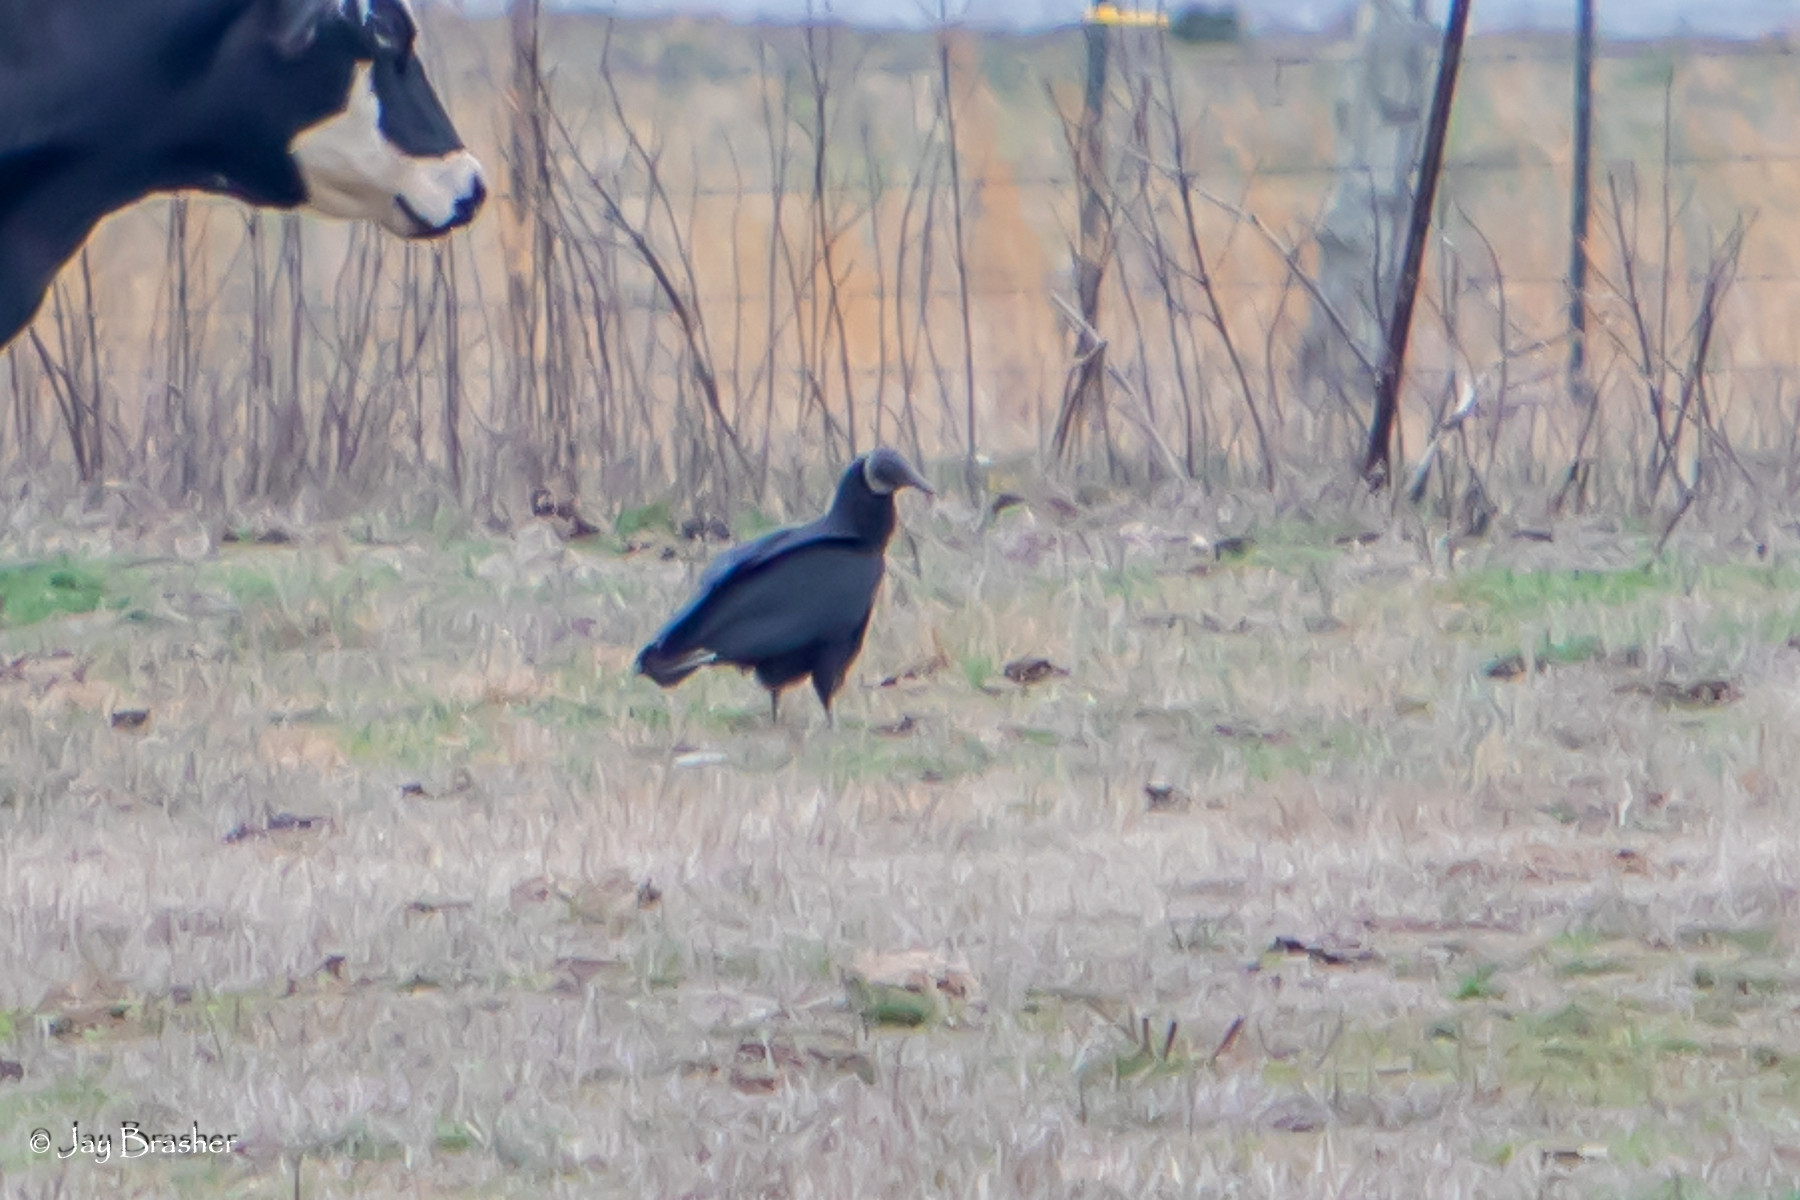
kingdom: Animalia
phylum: Chordata
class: Aves
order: Accipitriformes
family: Cathartidae
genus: Coragyps
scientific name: Coragyps atratus
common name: Black vulture
